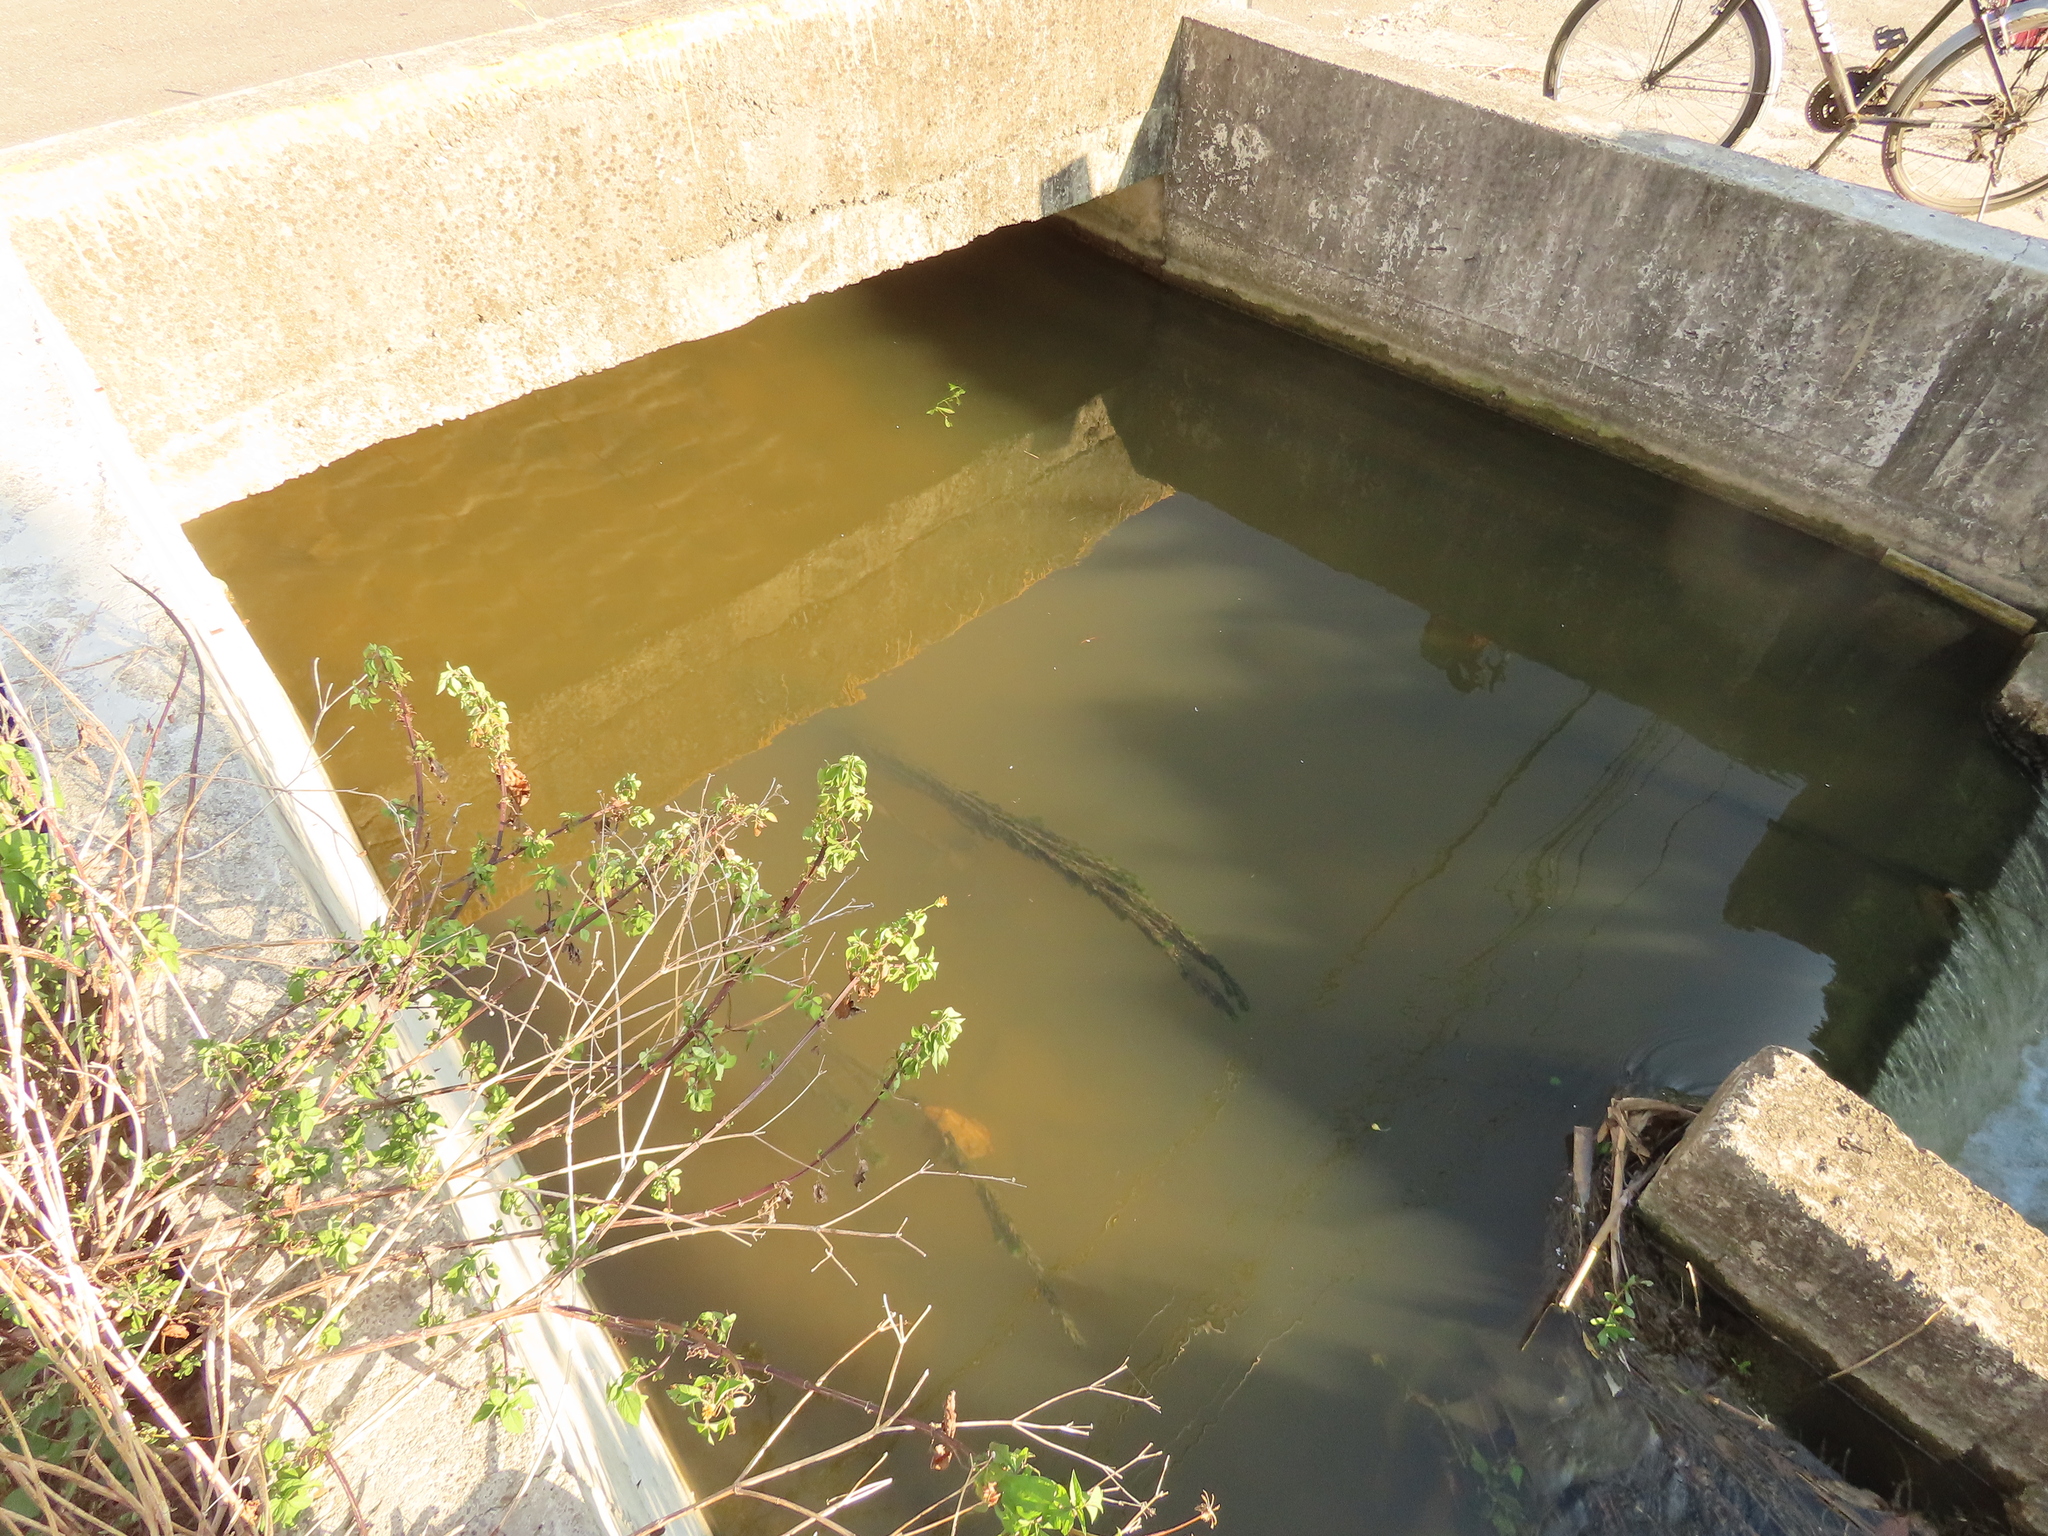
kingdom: Plantae
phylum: Tracheophyta
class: Magnoliopsida
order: Saxifragales
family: Haloragaceae
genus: Myriophyllum
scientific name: Myriophyllum spicatum
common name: Spiked water-milfoil
